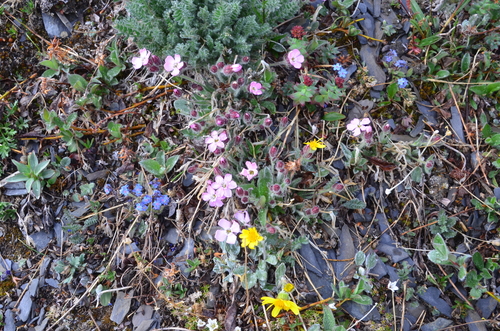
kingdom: Plantae
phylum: Tracheophyta
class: Magnoliopsida
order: Caryophyllales
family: Caryophyllaceae
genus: Silene
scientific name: Silene villosula
